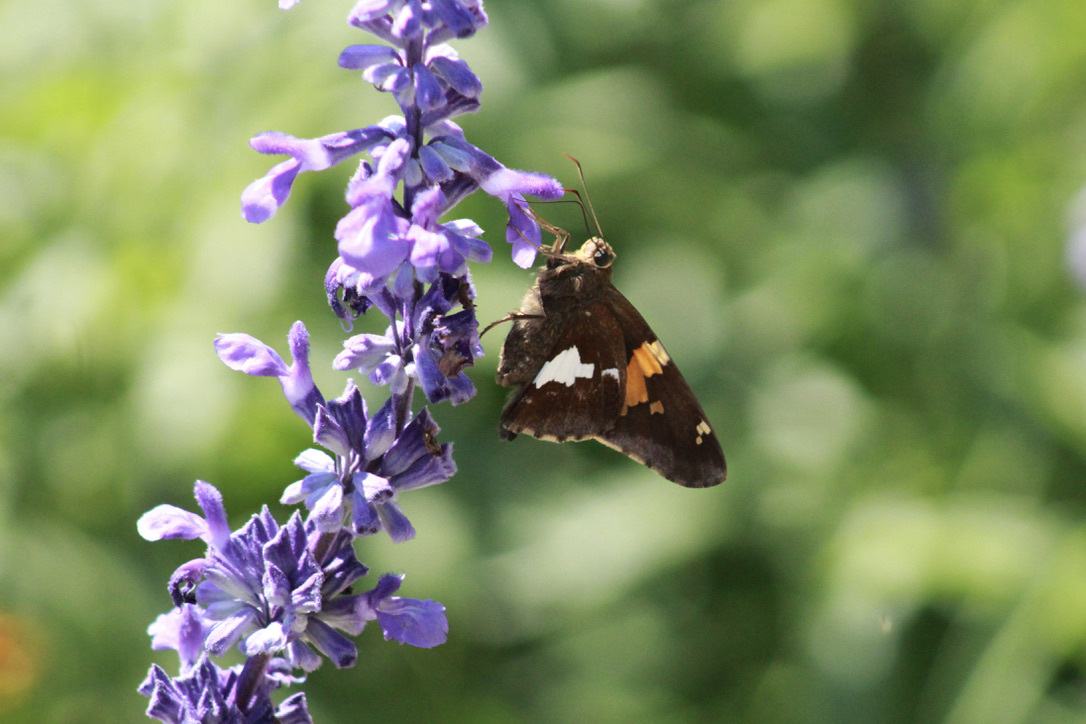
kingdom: Animalia
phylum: Arthropoda
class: Insecta
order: Lepidoptera
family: Hesperiidae
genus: Epargyreus
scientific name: Epargyreus clarus
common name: Silver-spotted skipper
